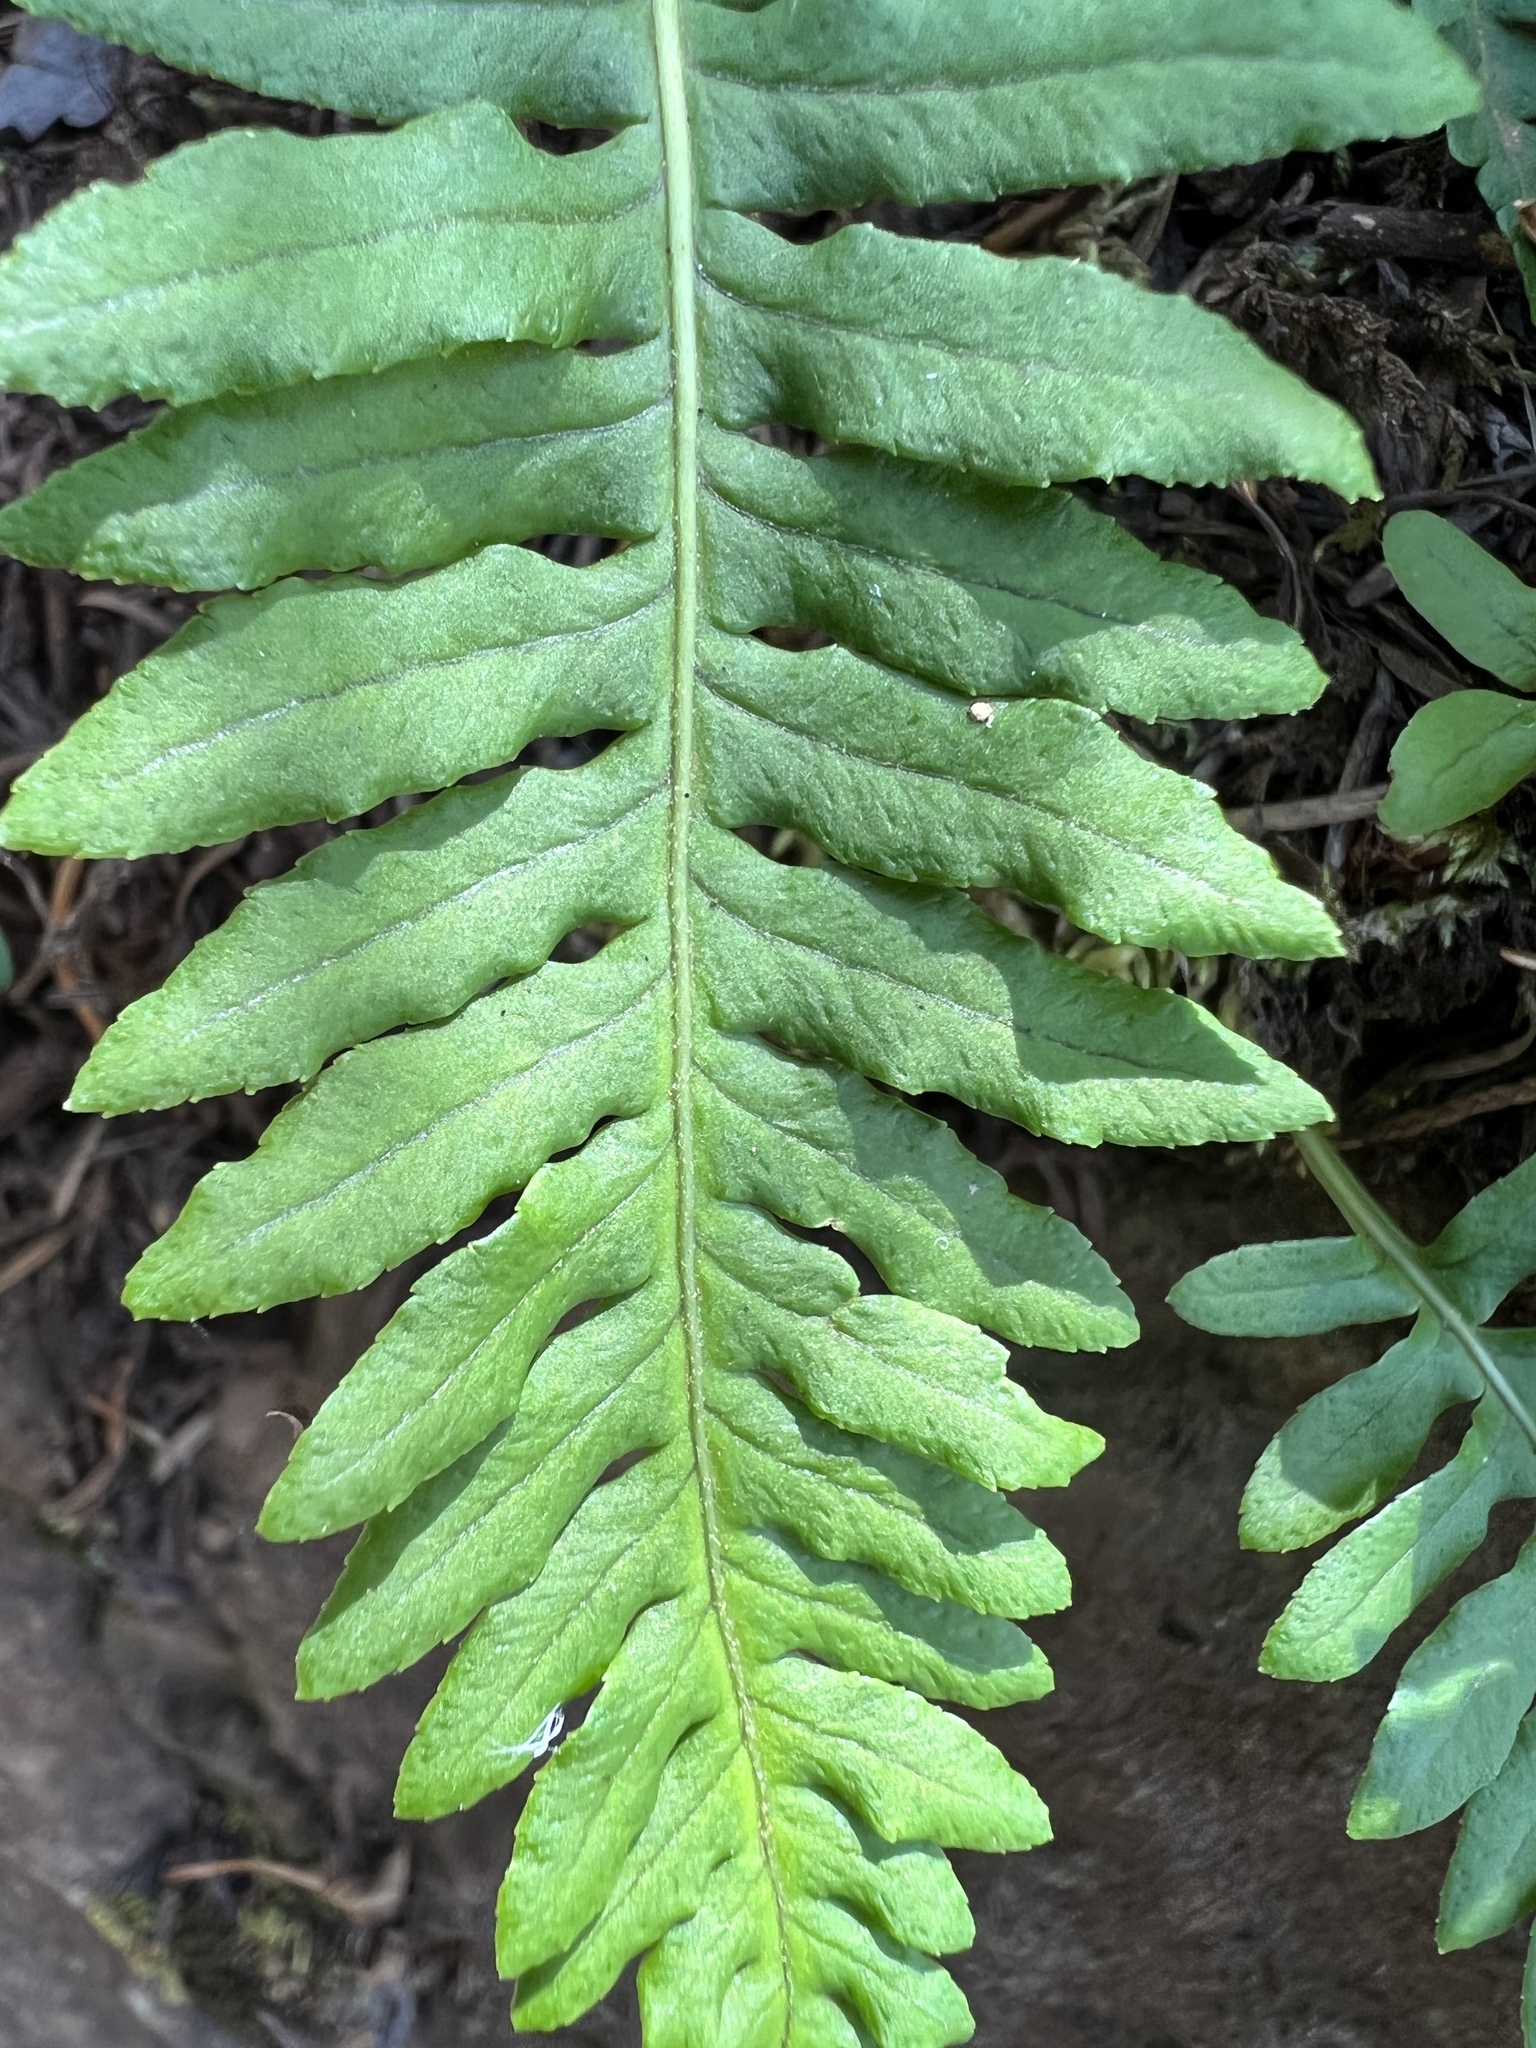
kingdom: Plantae
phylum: Tracheophyta
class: Polypodiopsida
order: Polypodiales
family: Polypodiaceae
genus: Polypodium
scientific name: Polypodium glycyrrhiza
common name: Licorice fern
